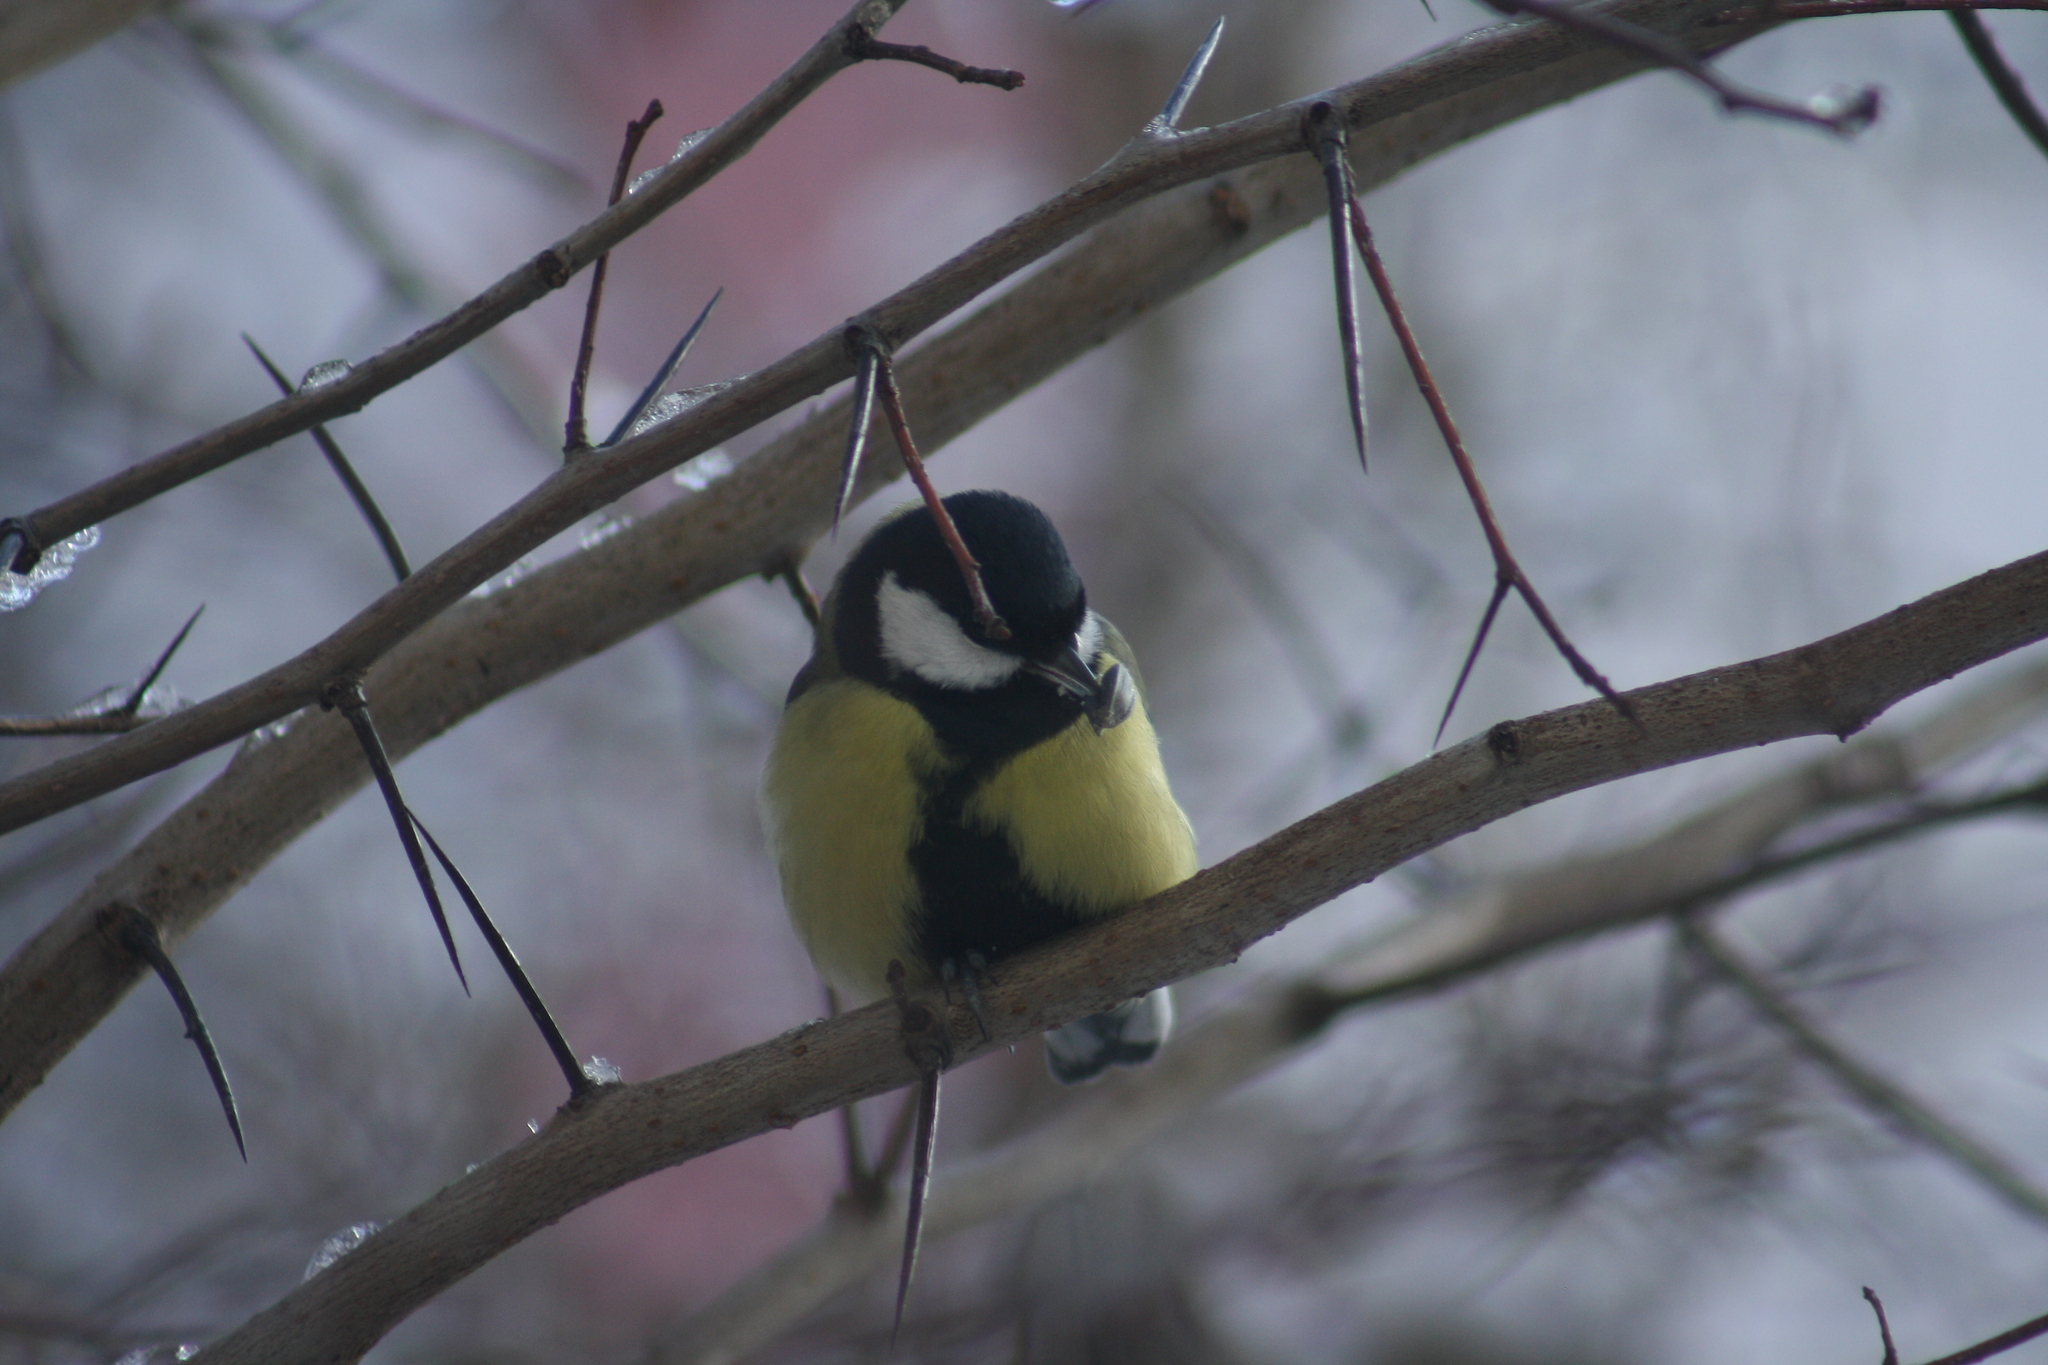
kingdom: Animalia
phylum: Chordata
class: Aves
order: Passeriformes
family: Paridae
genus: Parus
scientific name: Parus major
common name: Great tit
